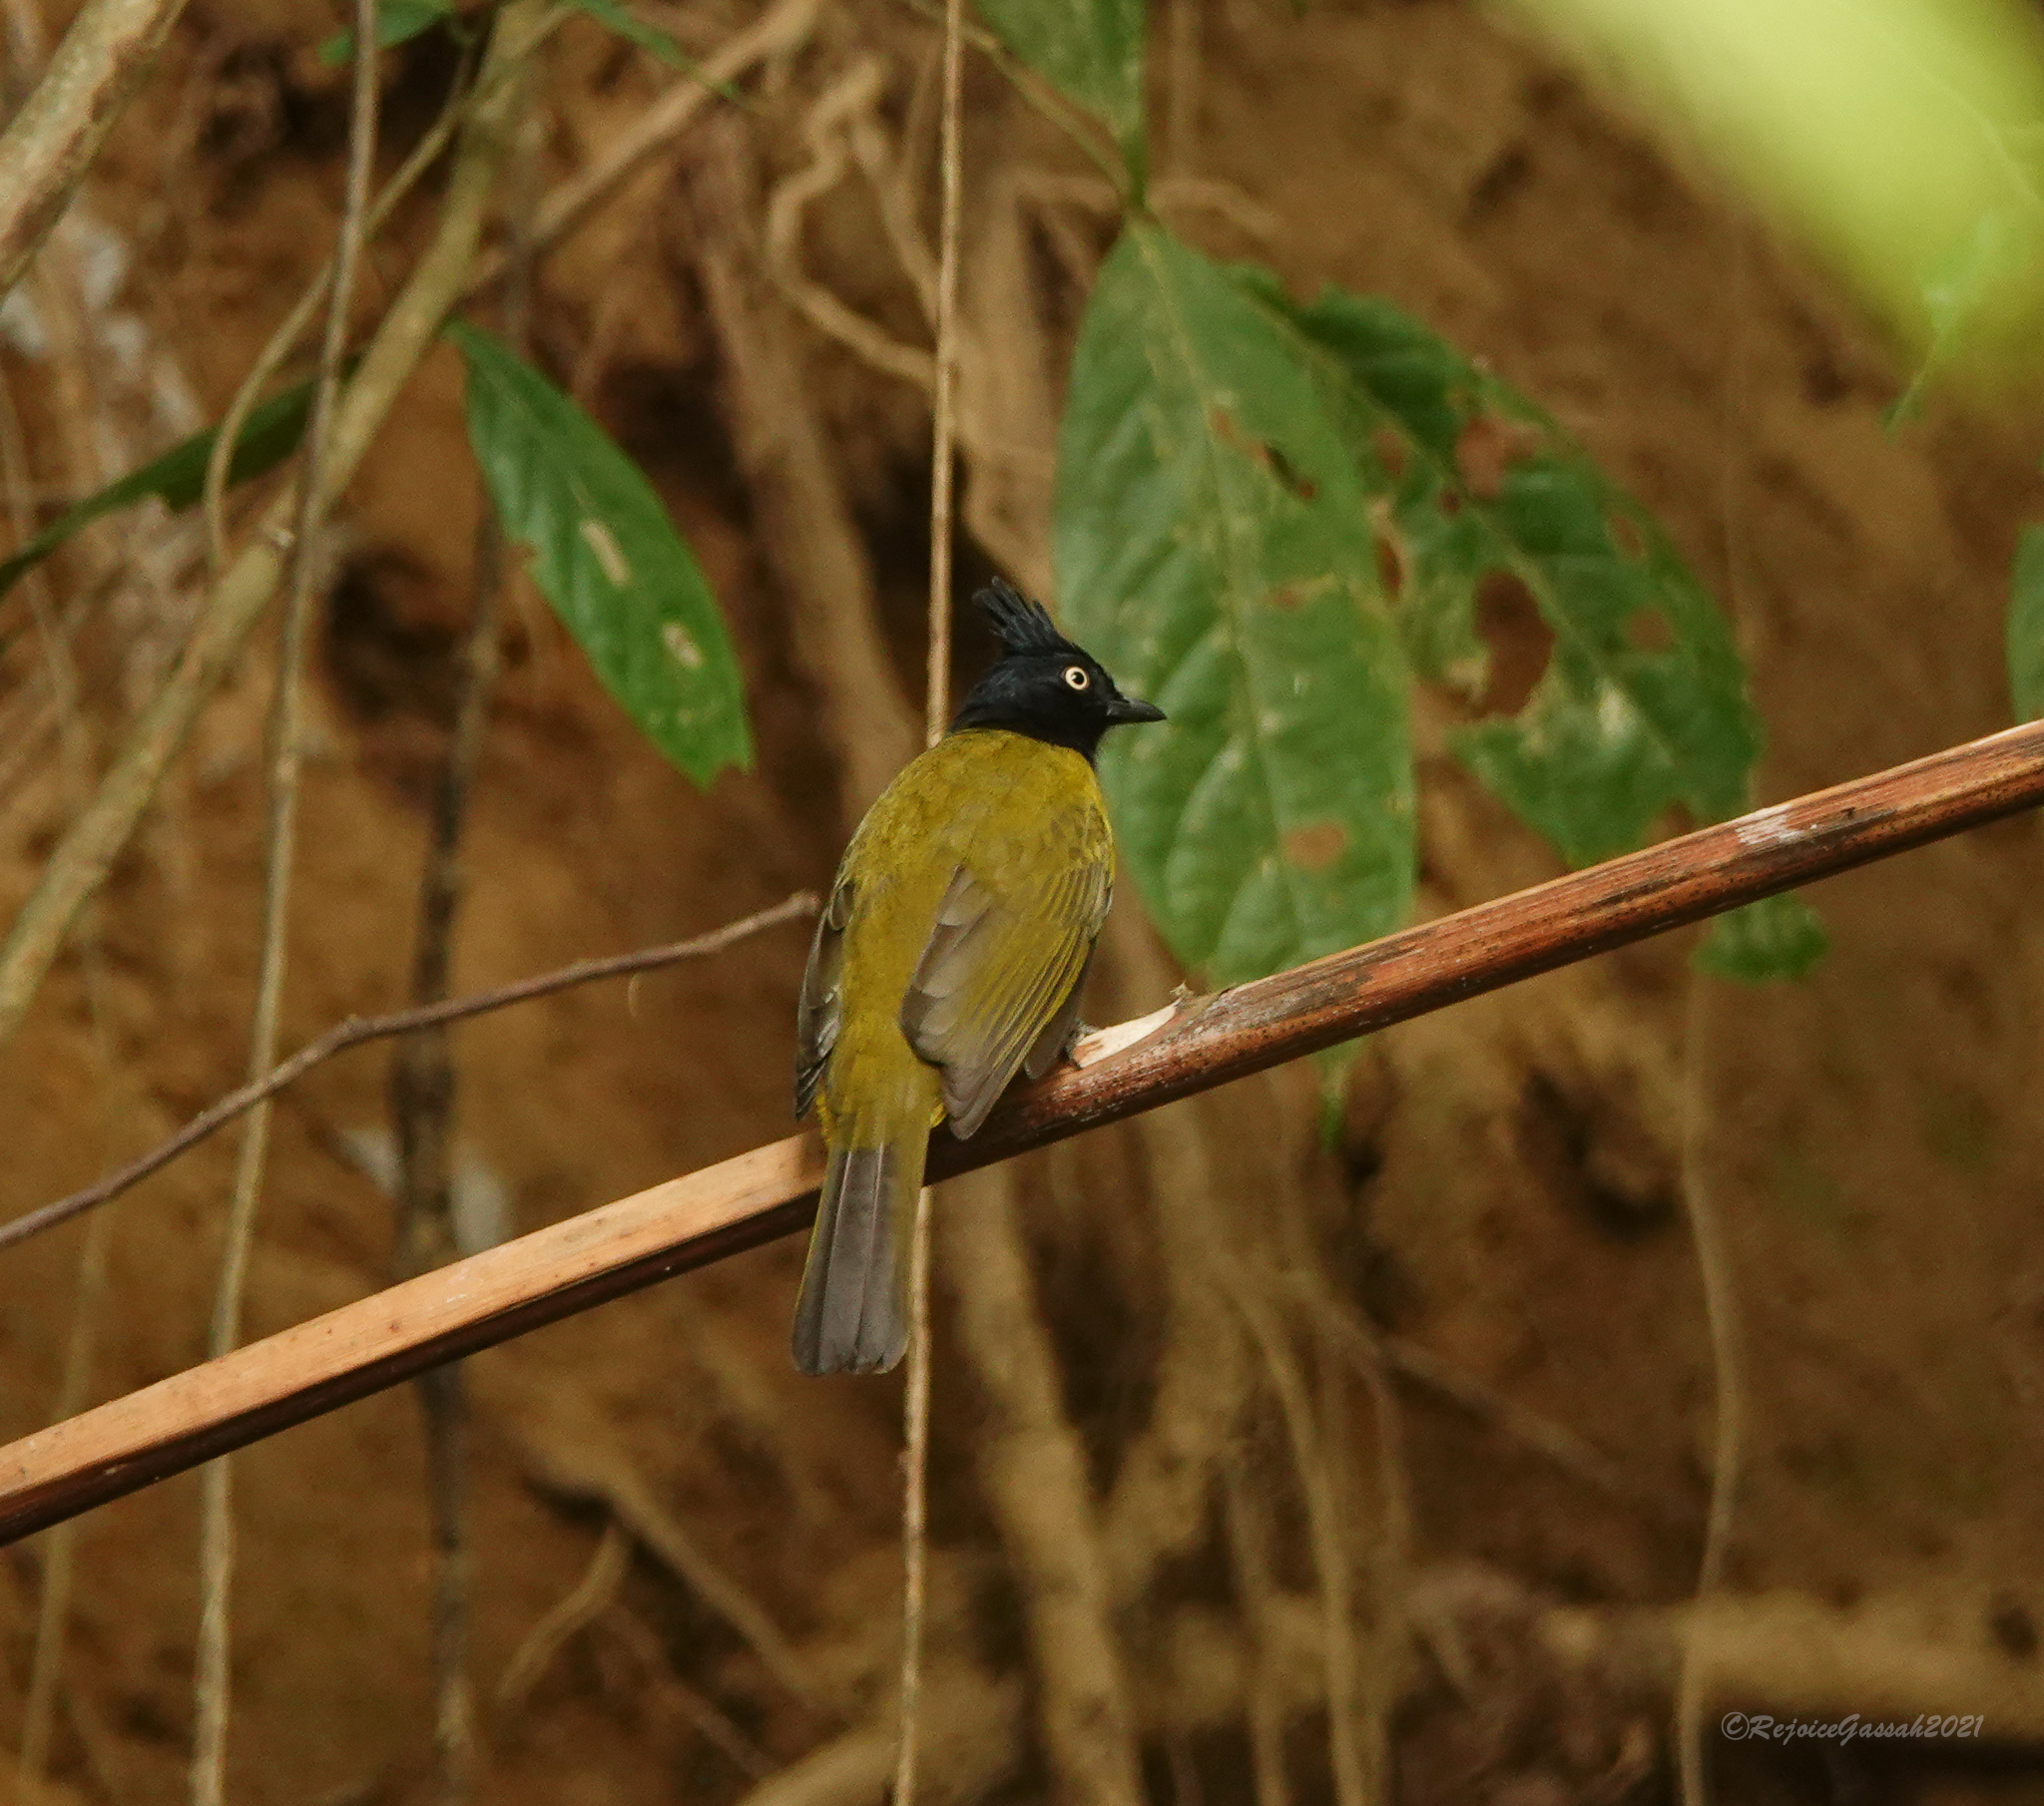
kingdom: Animalia
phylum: Chordata
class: Aves
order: Passeriformes
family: Pycnonotidae
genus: Pycnonotus
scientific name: Pycnonotus flaviventris
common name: Black-crested bulbul
